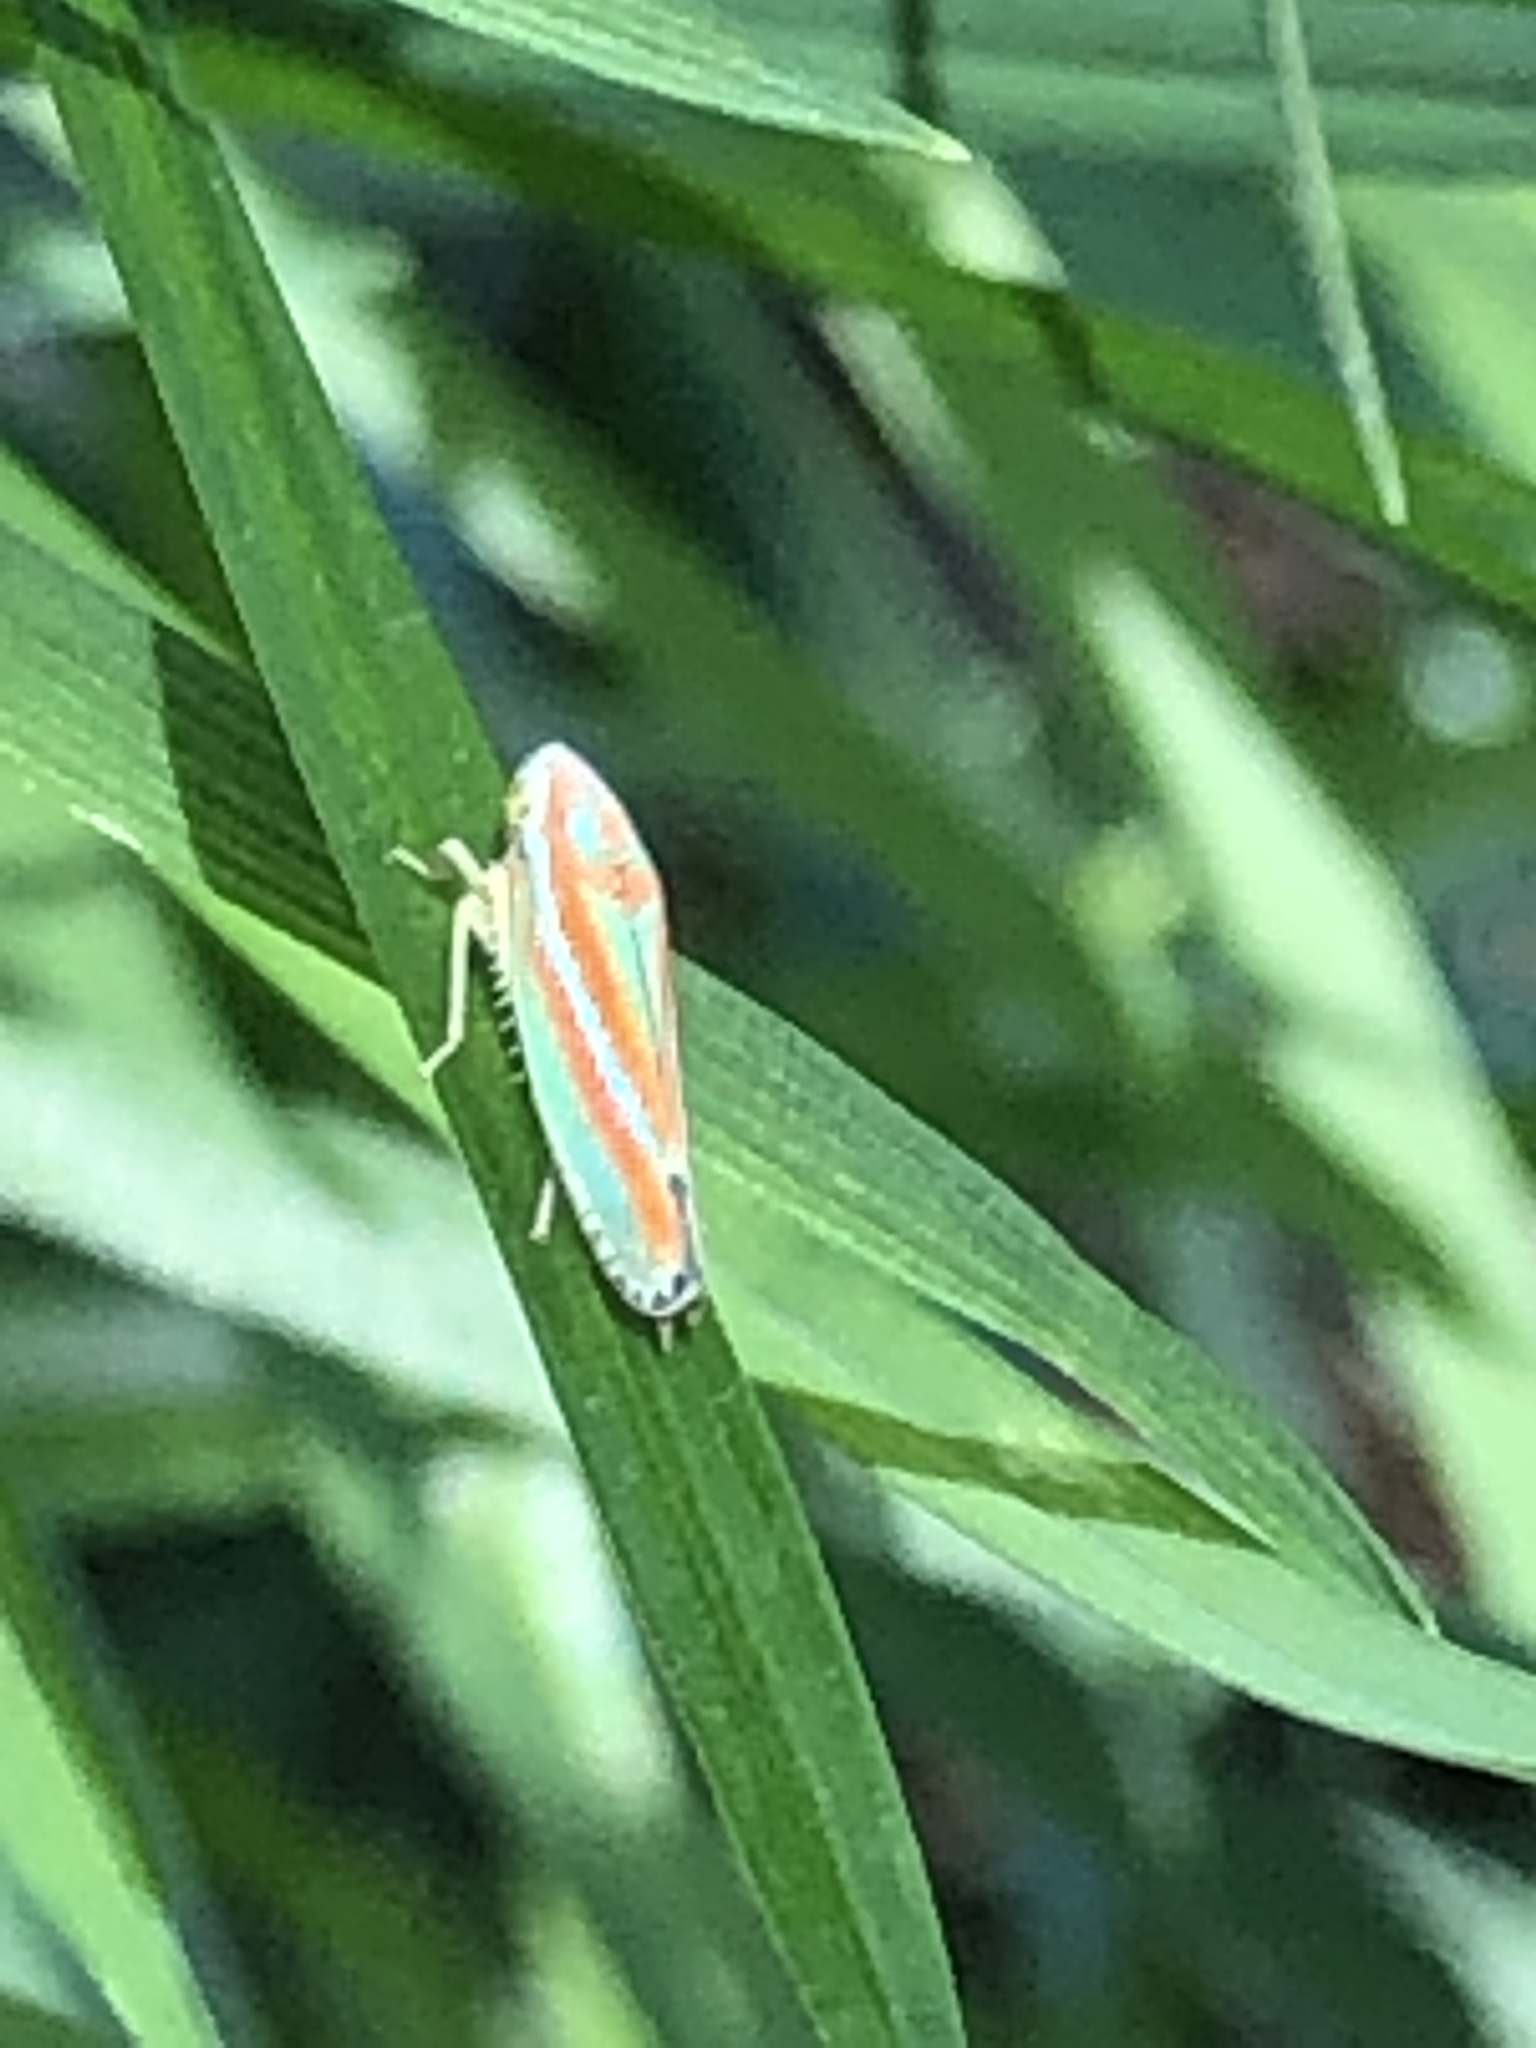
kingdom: Animalia
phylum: Arthropoda
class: Insecta
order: Hemiptera
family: Cicadellidae
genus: Graphocephala
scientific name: Graphocephala versuta
